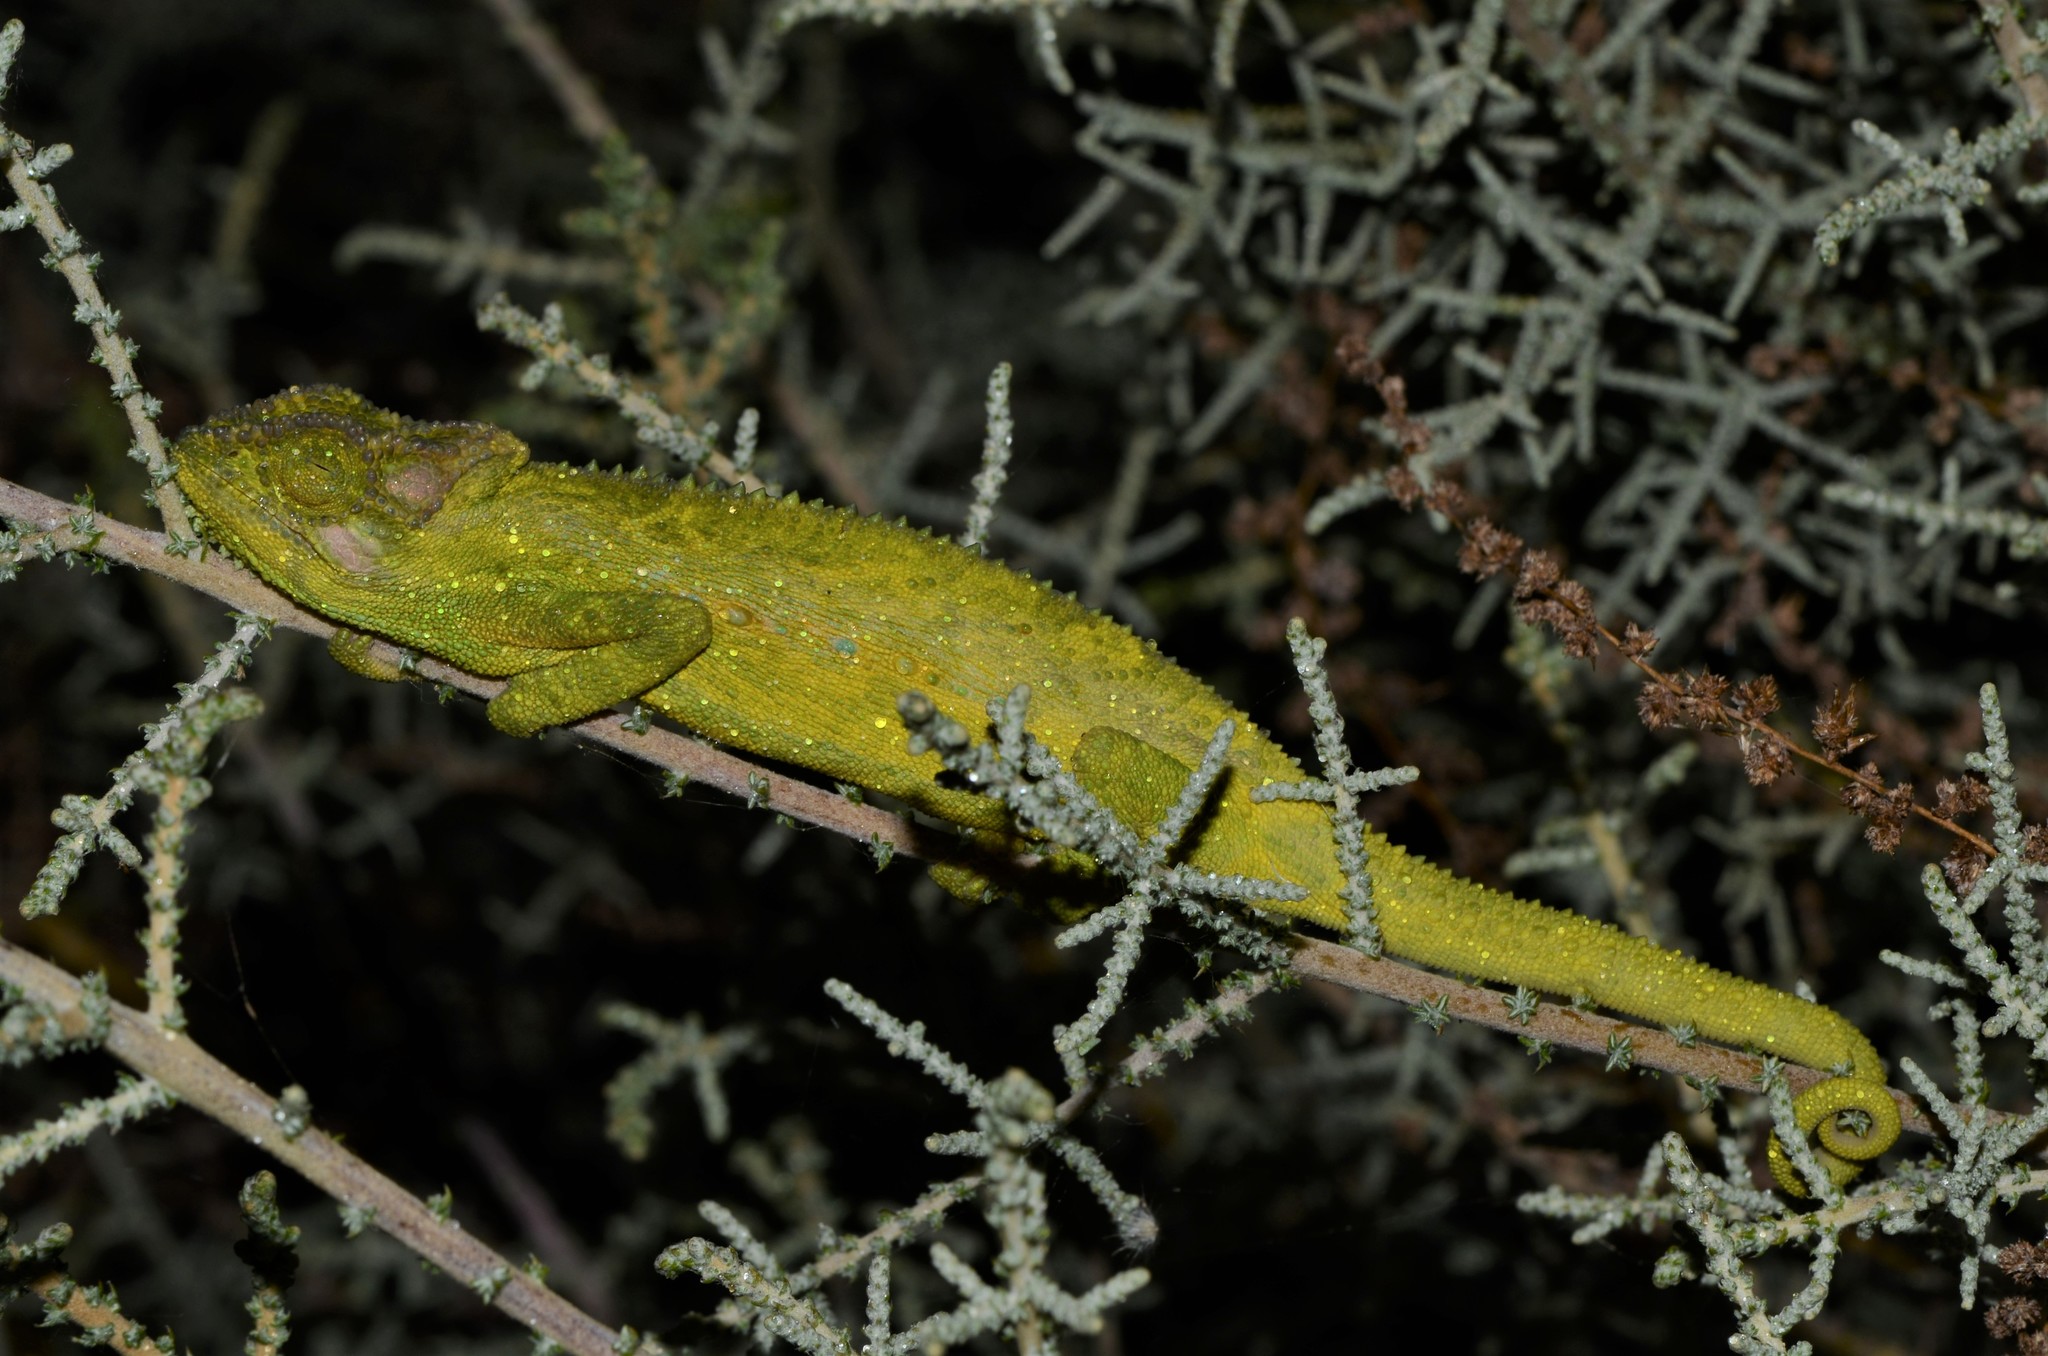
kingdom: Animalia
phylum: Chordata
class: Squamata
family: Chamaeleonidae
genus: Bradypodion
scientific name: Bradypodion pumilum
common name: Cape dwarf chameleon
